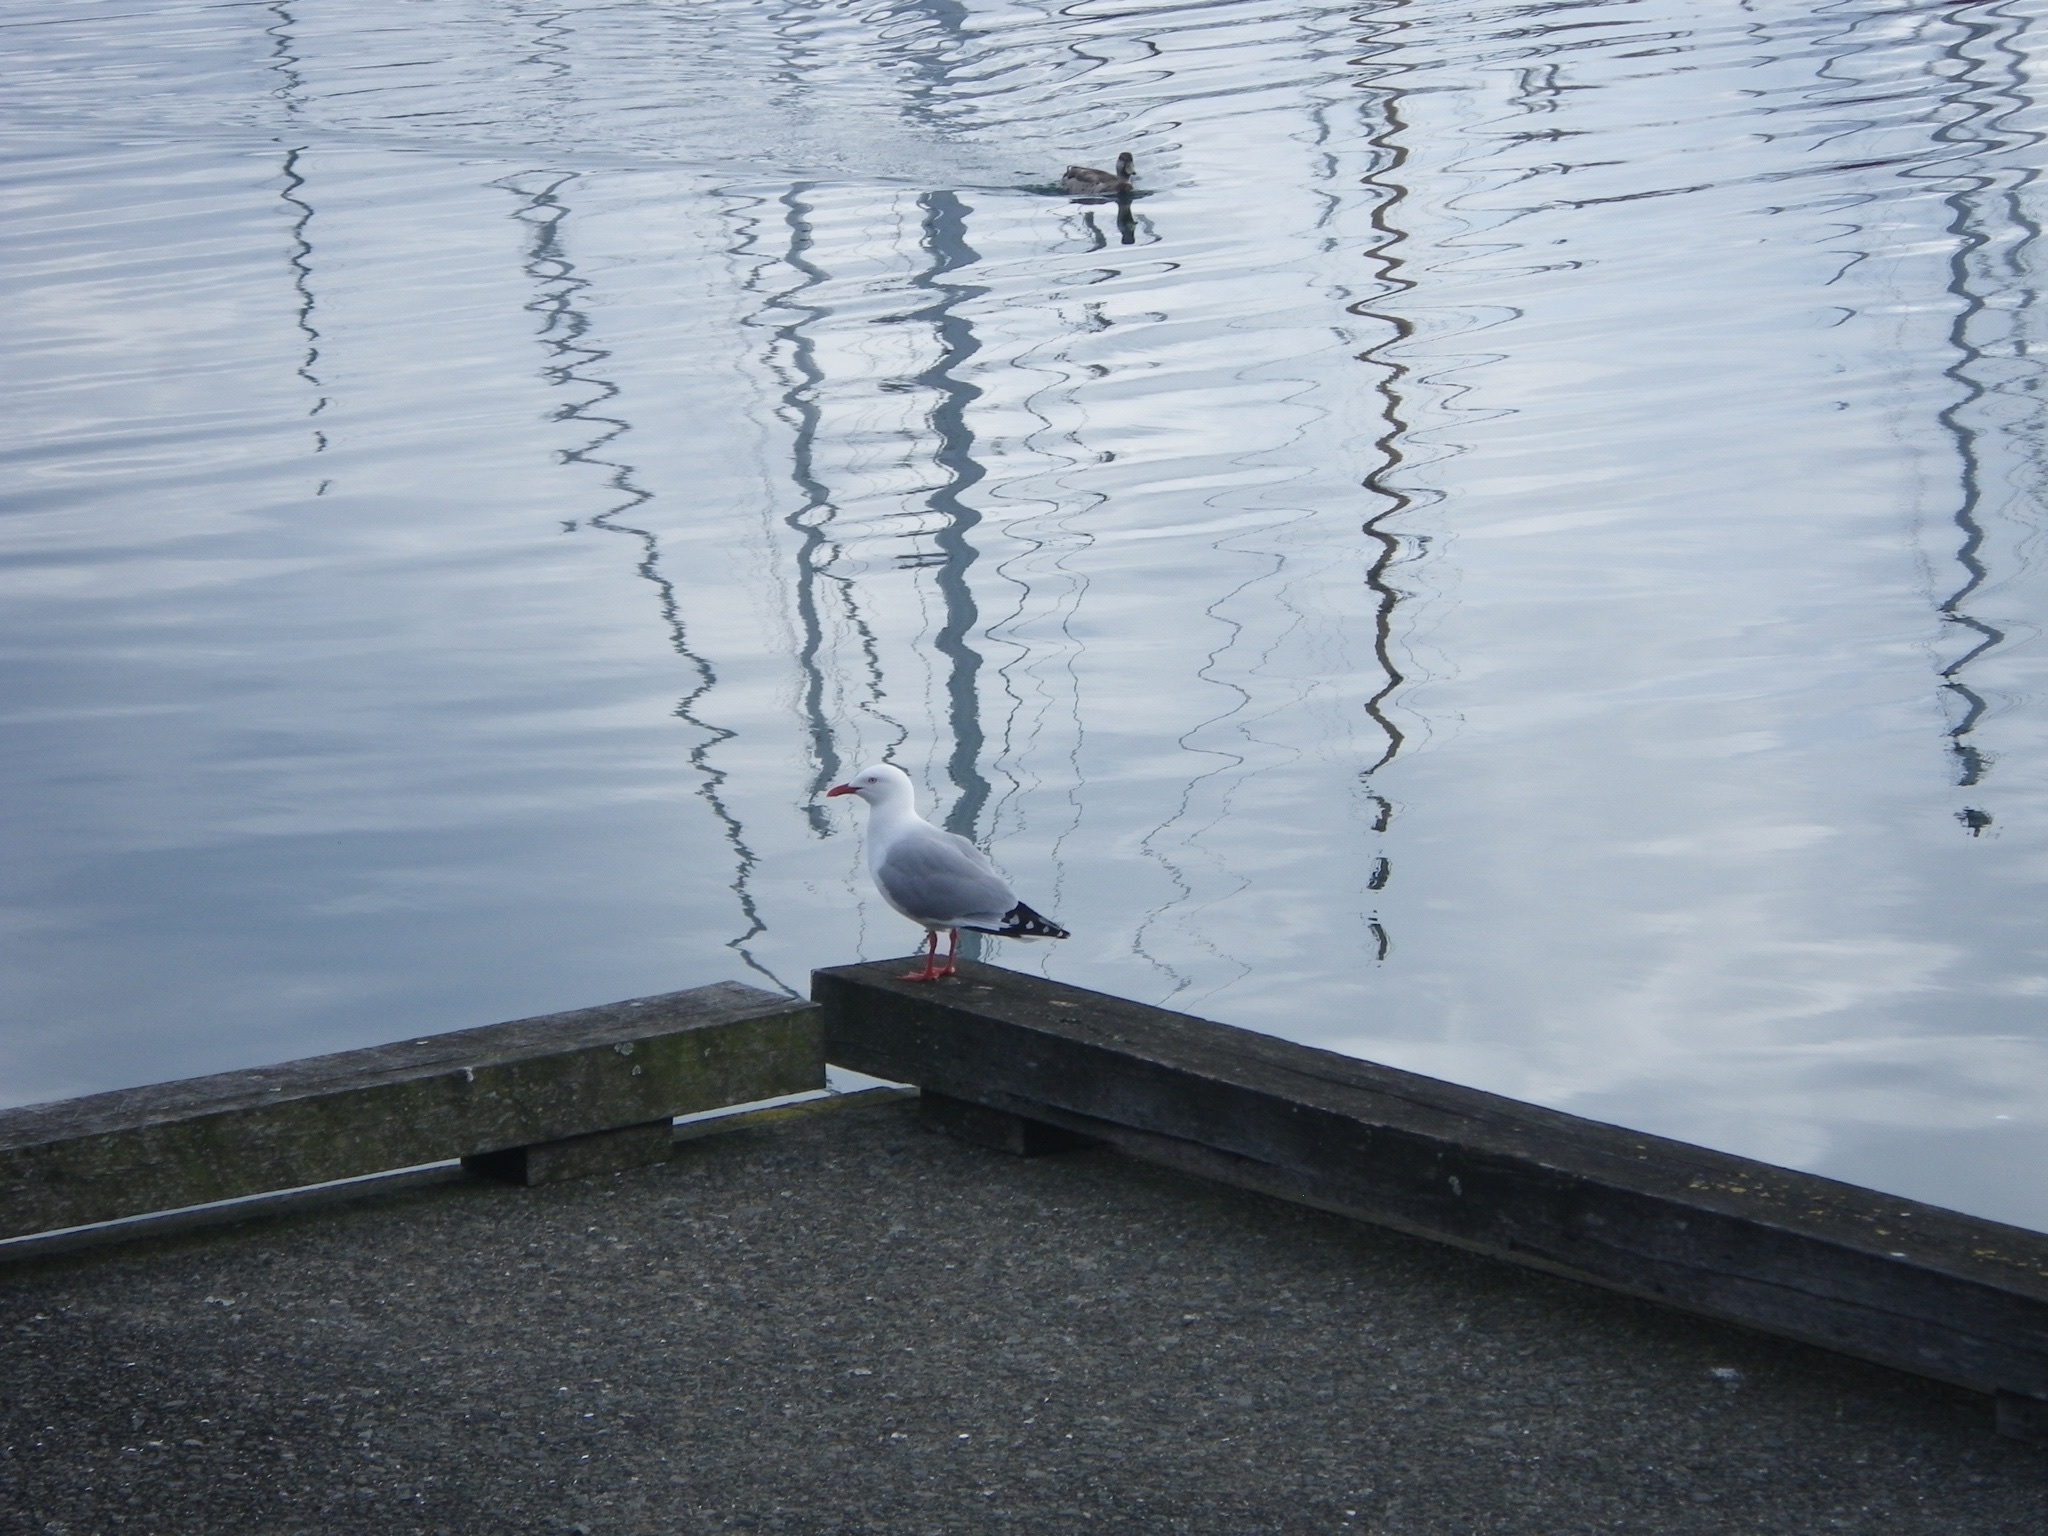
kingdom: Animalia
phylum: Chordata
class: Aves
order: Charadriiformes
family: Laridae
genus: Chroicocephalus
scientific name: Chroicocephalus novaehollandiae
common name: Silver gull
